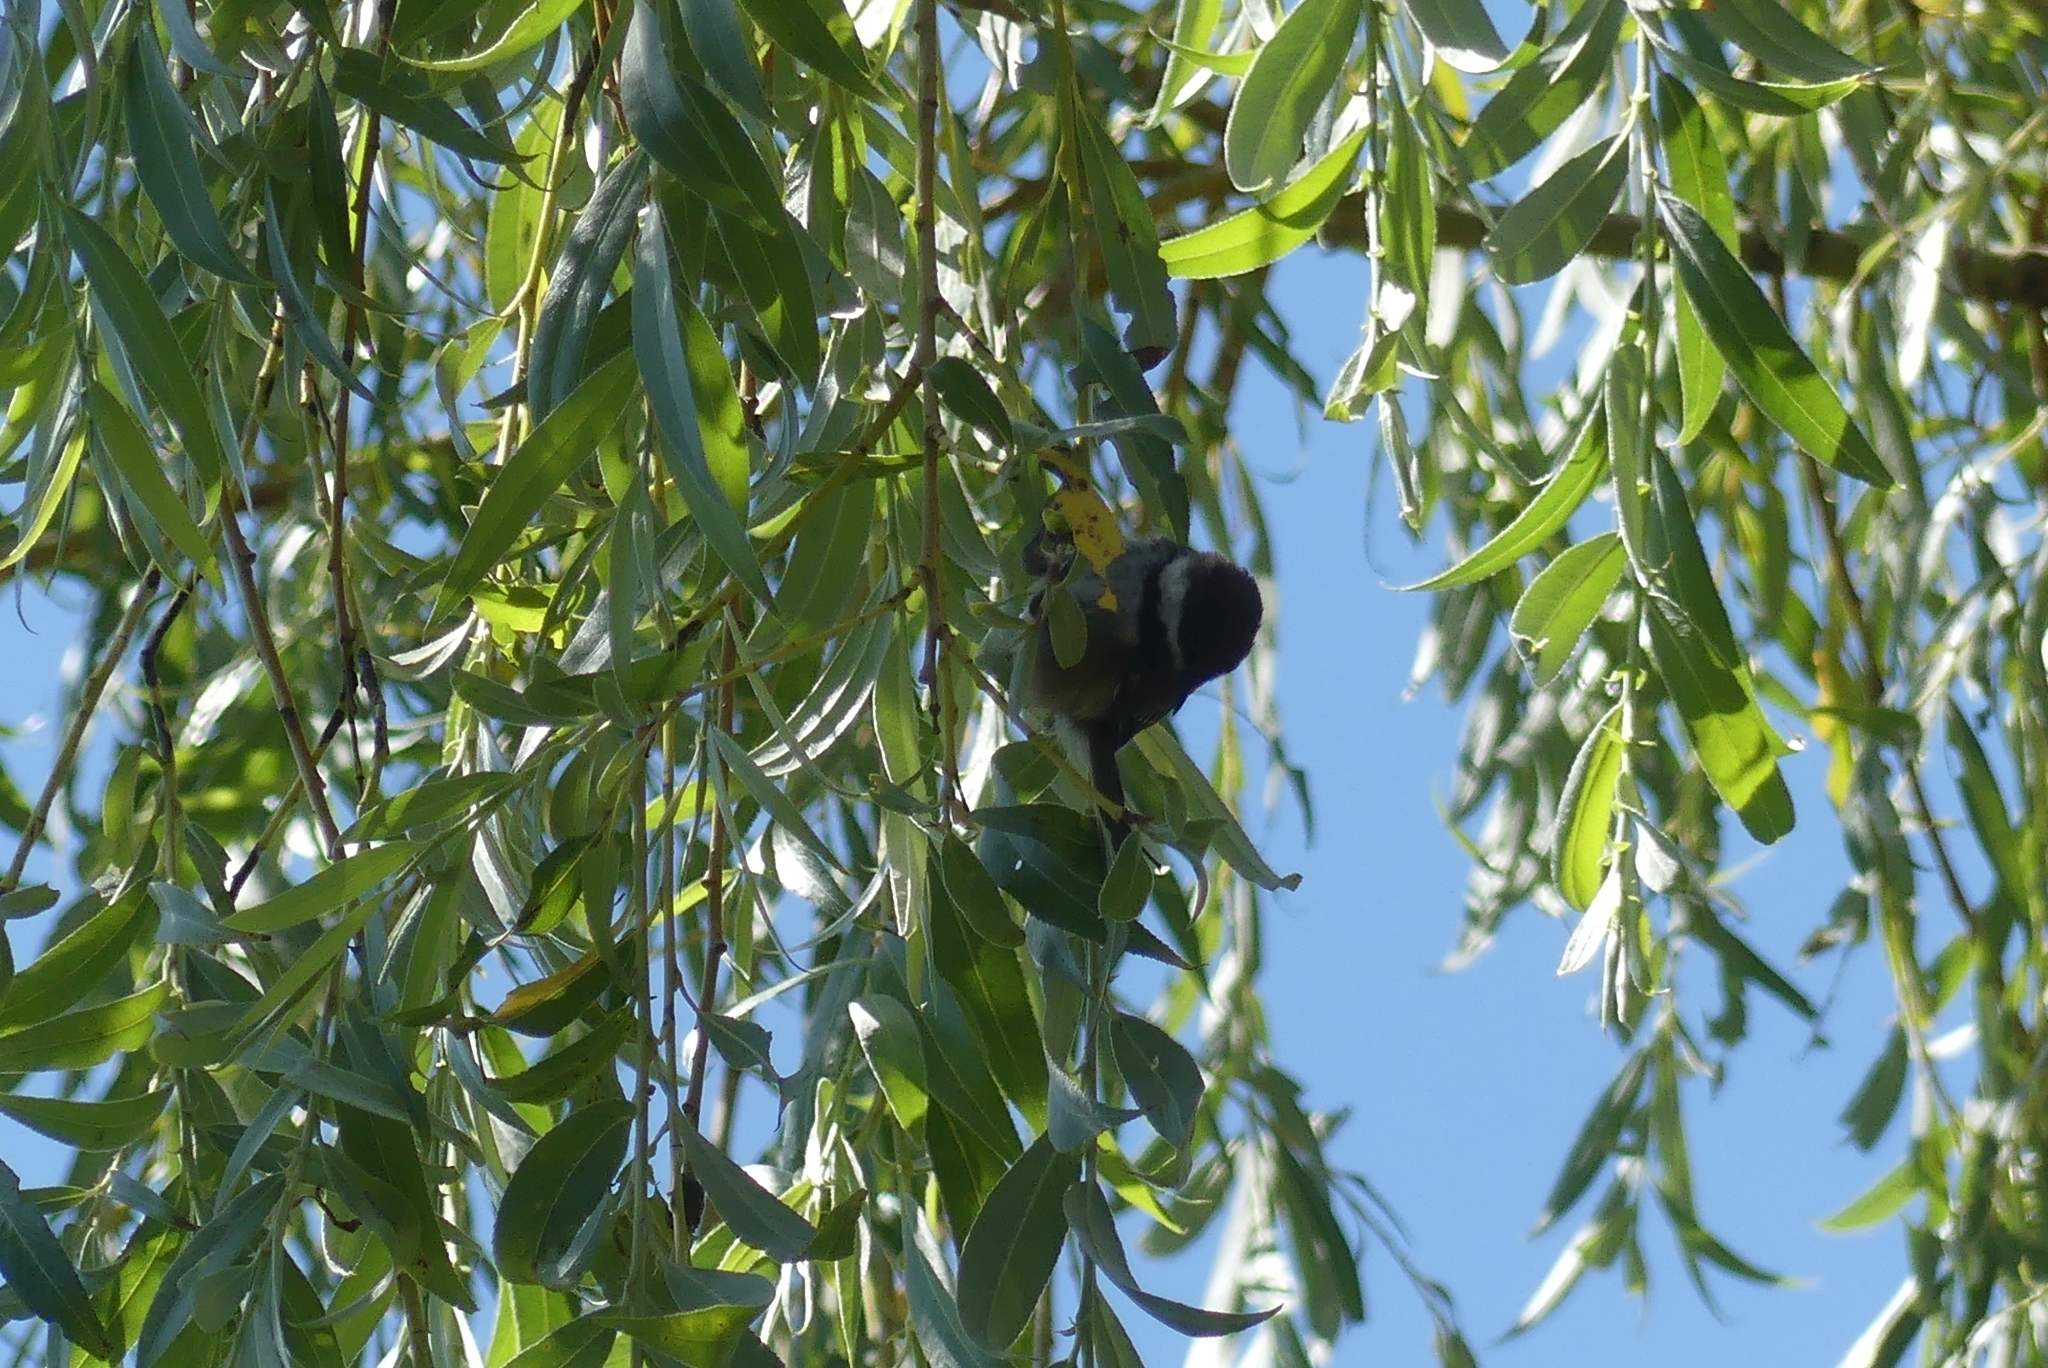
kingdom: Animalia
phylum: Chordata
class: Aves
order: Passeriformes
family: Paridae
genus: Poecile
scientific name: Poecile rufescens
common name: Chestnut-backed chickadee
